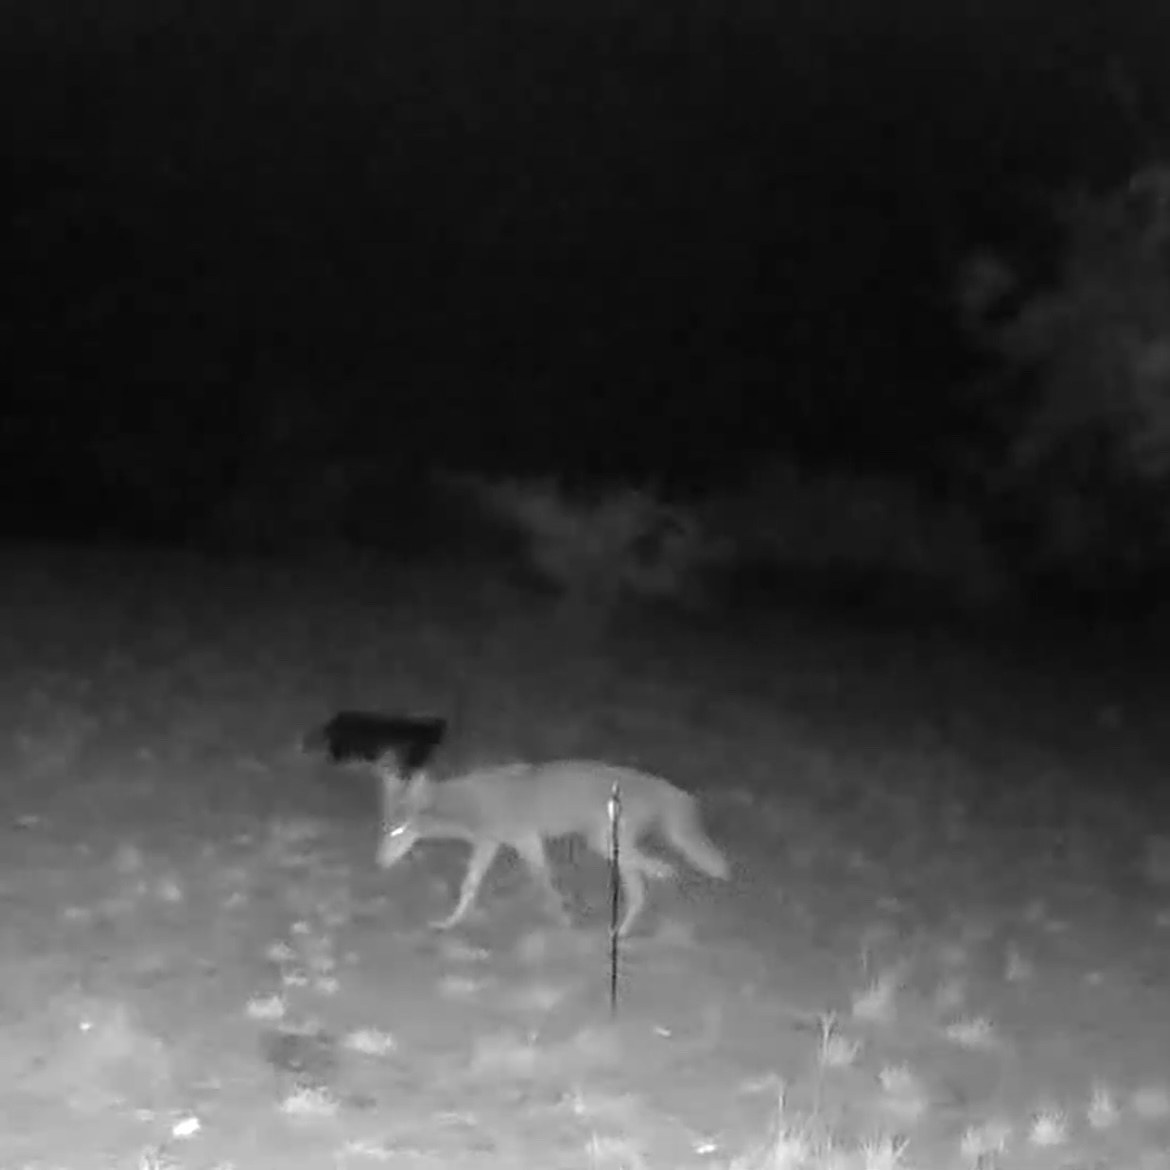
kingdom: Animalia
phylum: Chordata
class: Mammalia
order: Carnivora
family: Canidae
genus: Canis
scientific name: Canis latrans
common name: Coyote
